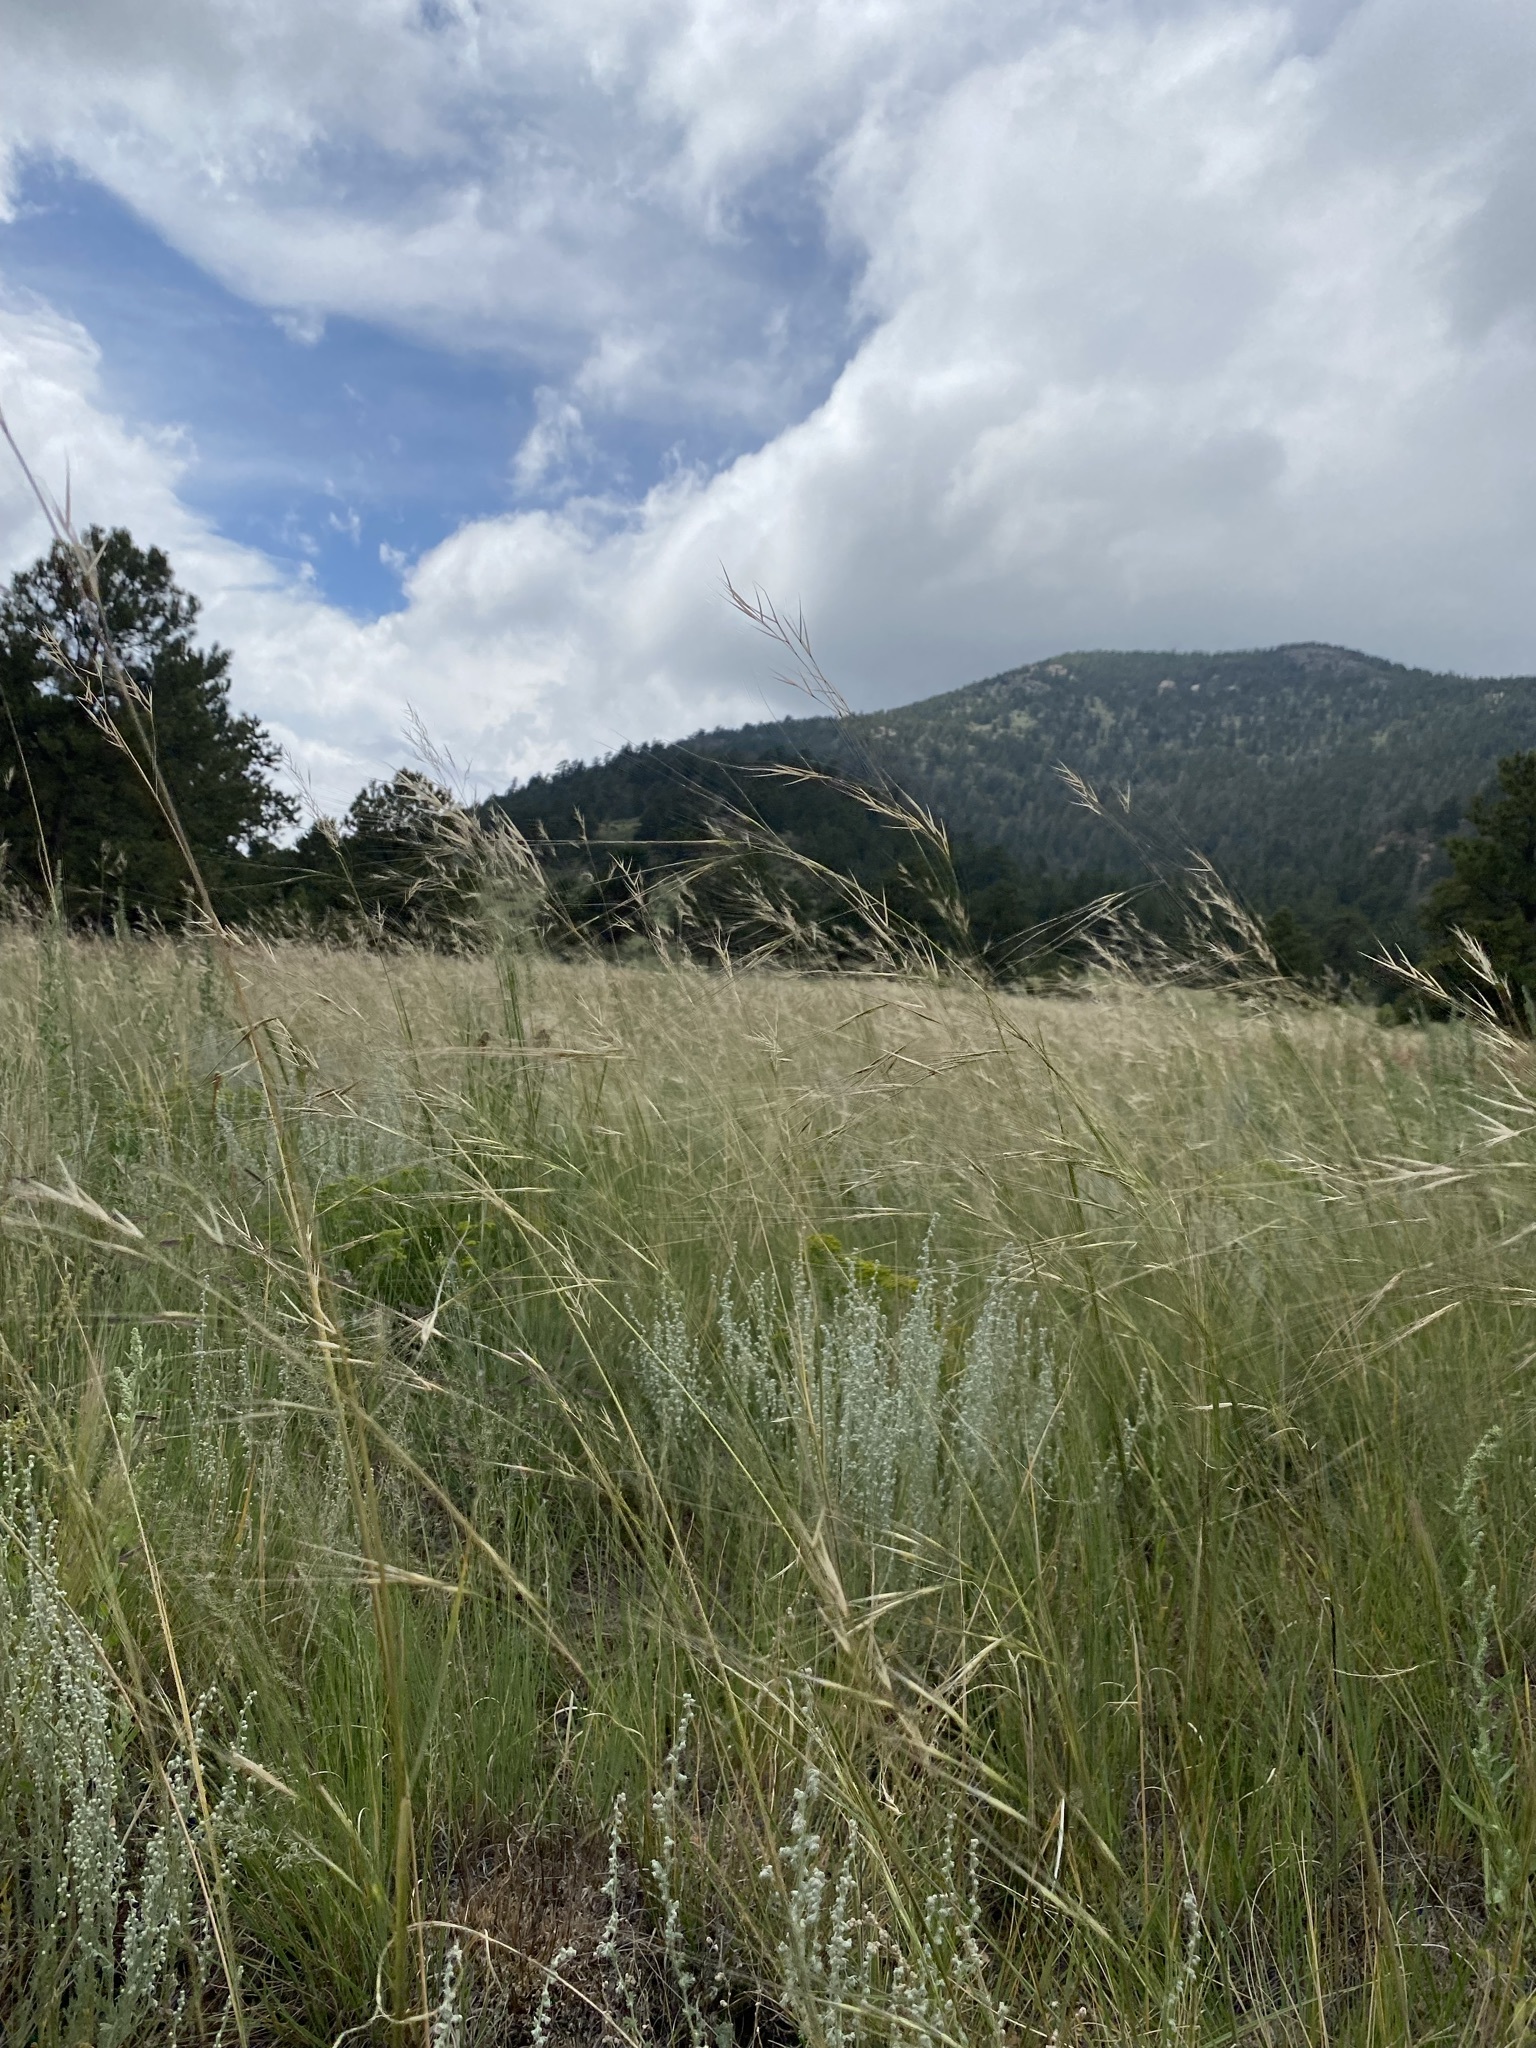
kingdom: Plantae
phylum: Tracheophyta
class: Liliopsida
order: Poales
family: Poaceae
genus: Hesperostipa
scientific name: Hesperostipa comata
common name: Needle-and-thread grass
